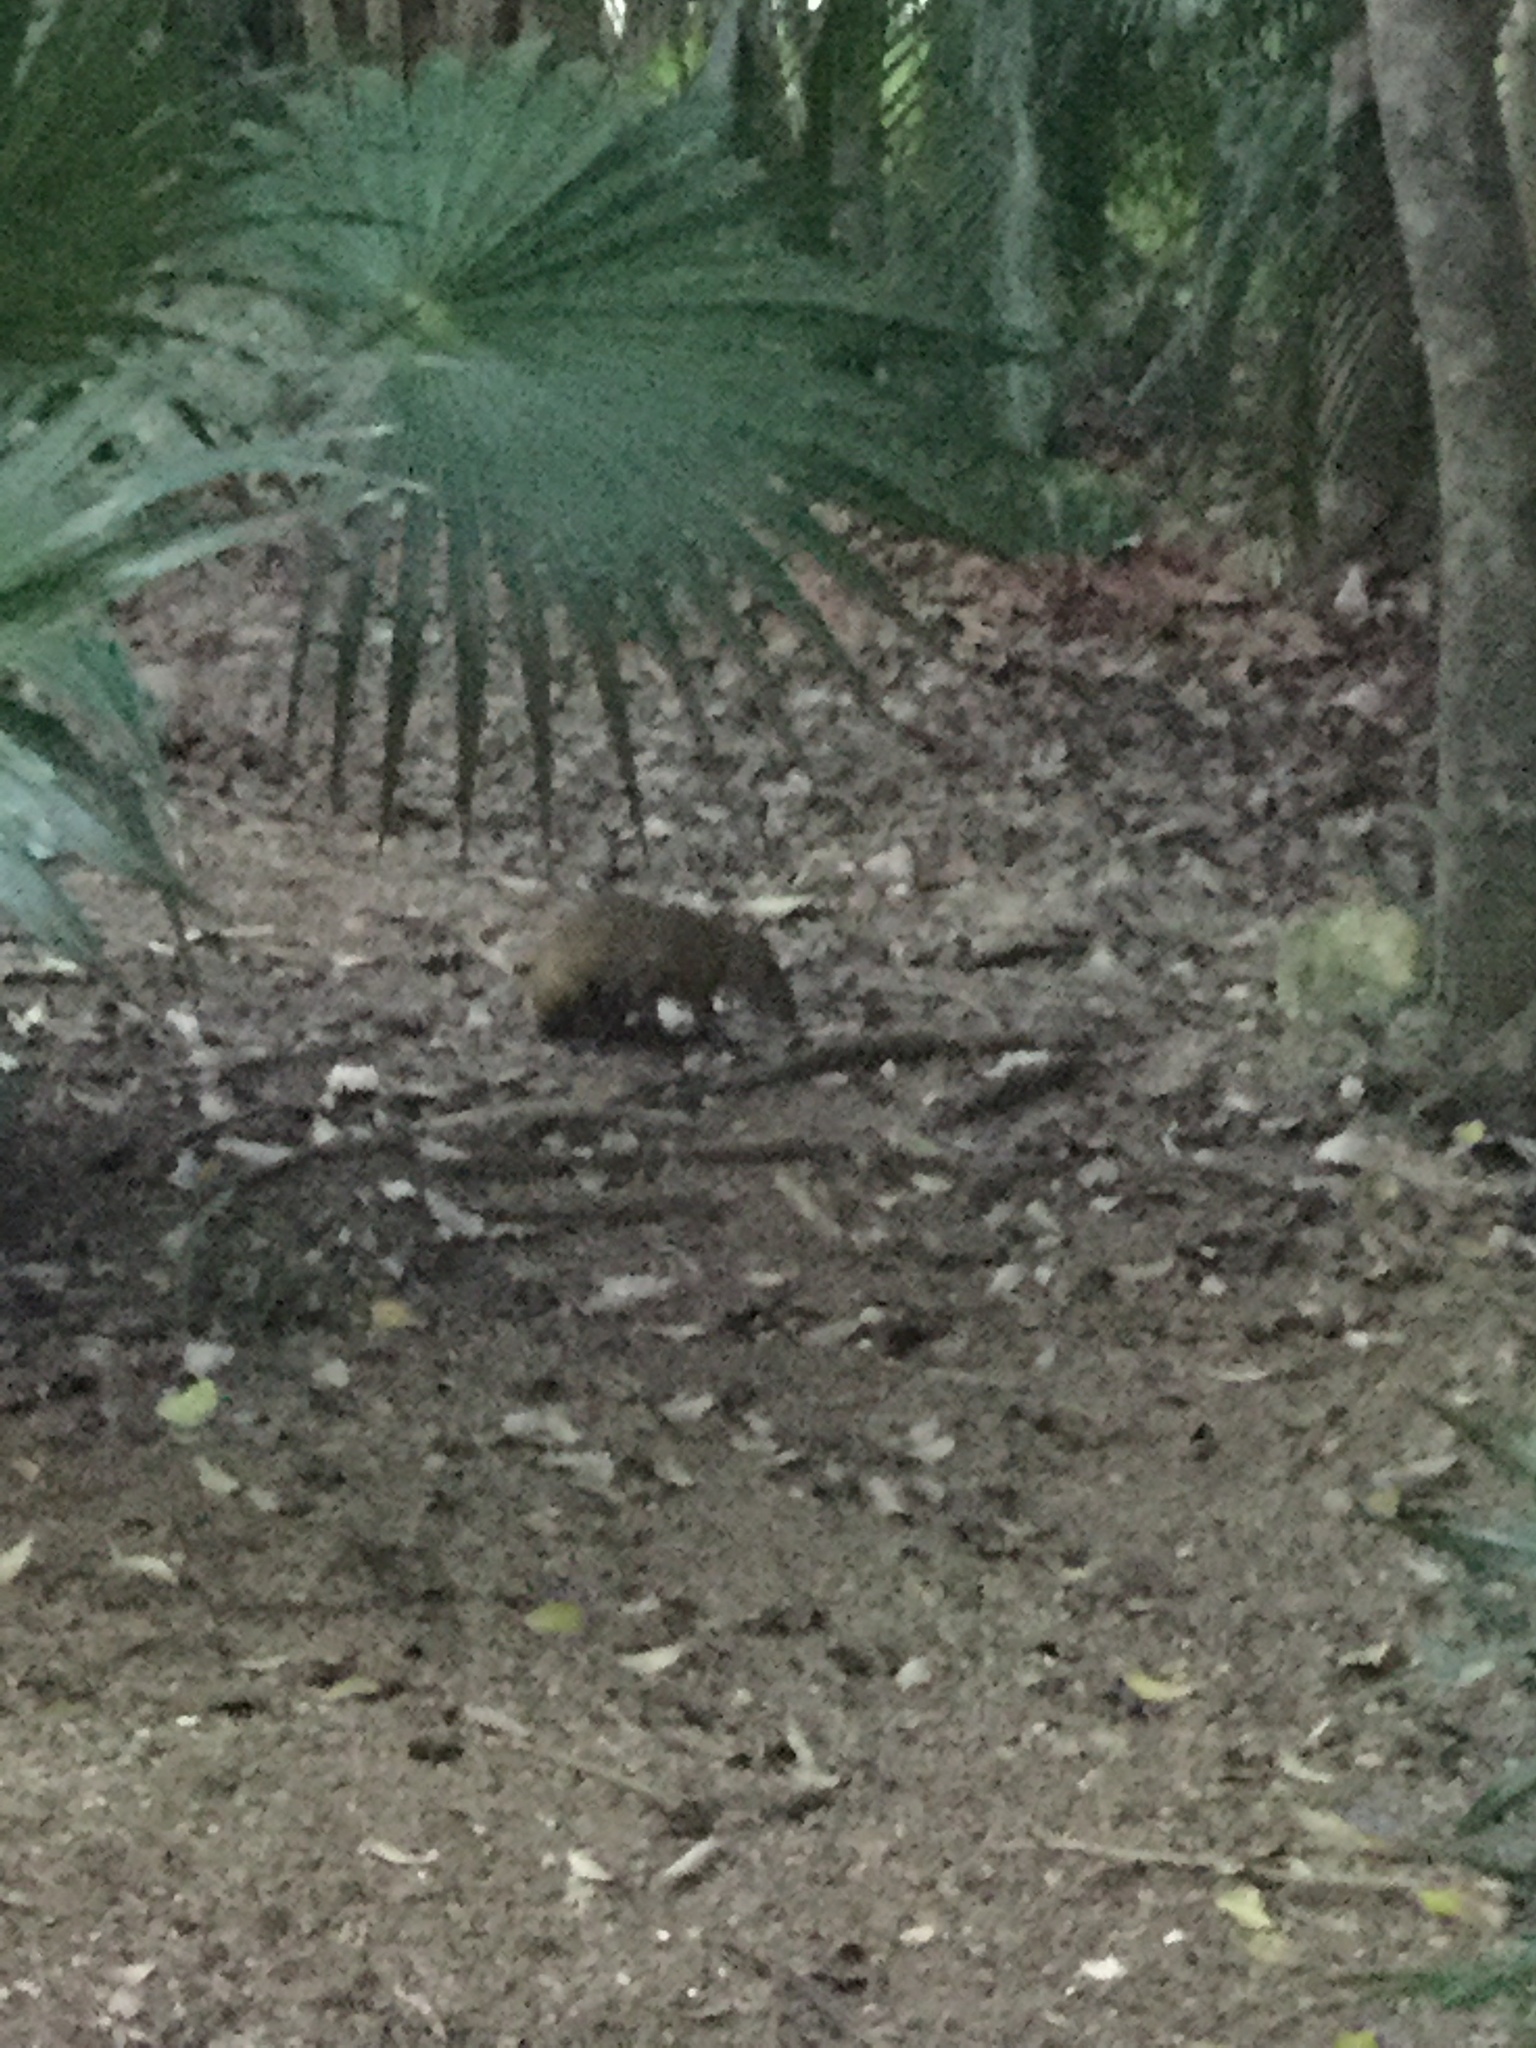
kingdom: Animalia
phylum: Chordata
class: Mammalia
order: Rodentia
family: Dasyproctidae
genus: Dasyprocta
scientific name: Dasyprocta punctata
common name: Central american agouti
